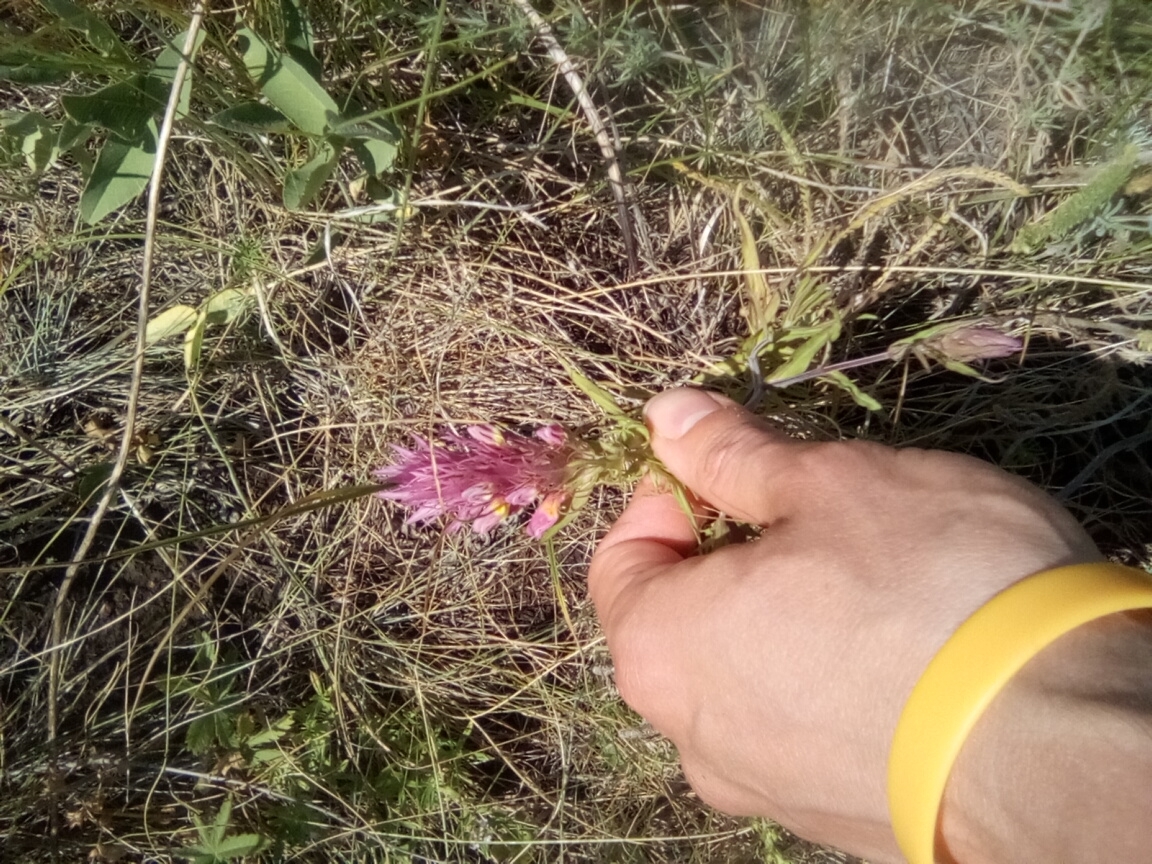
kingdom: Plantae
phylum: Tracheophyta
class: Magnoliopsida
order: Lamiales
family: Orobanchaceae
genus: Melampyrum
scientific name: Melampyrum arvense
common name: Field cow-wheat
